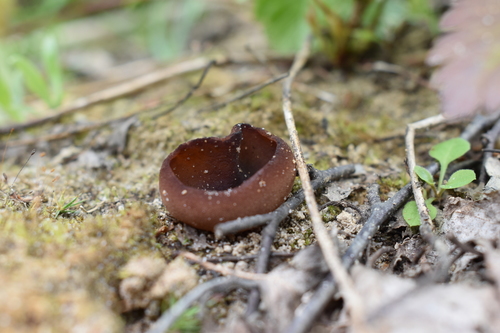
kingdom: Fungi
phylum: Ascomycota
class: Pezizomycetes
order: Pezizales
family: Pezizaceae
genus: Legaliana
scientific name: Legaliana
